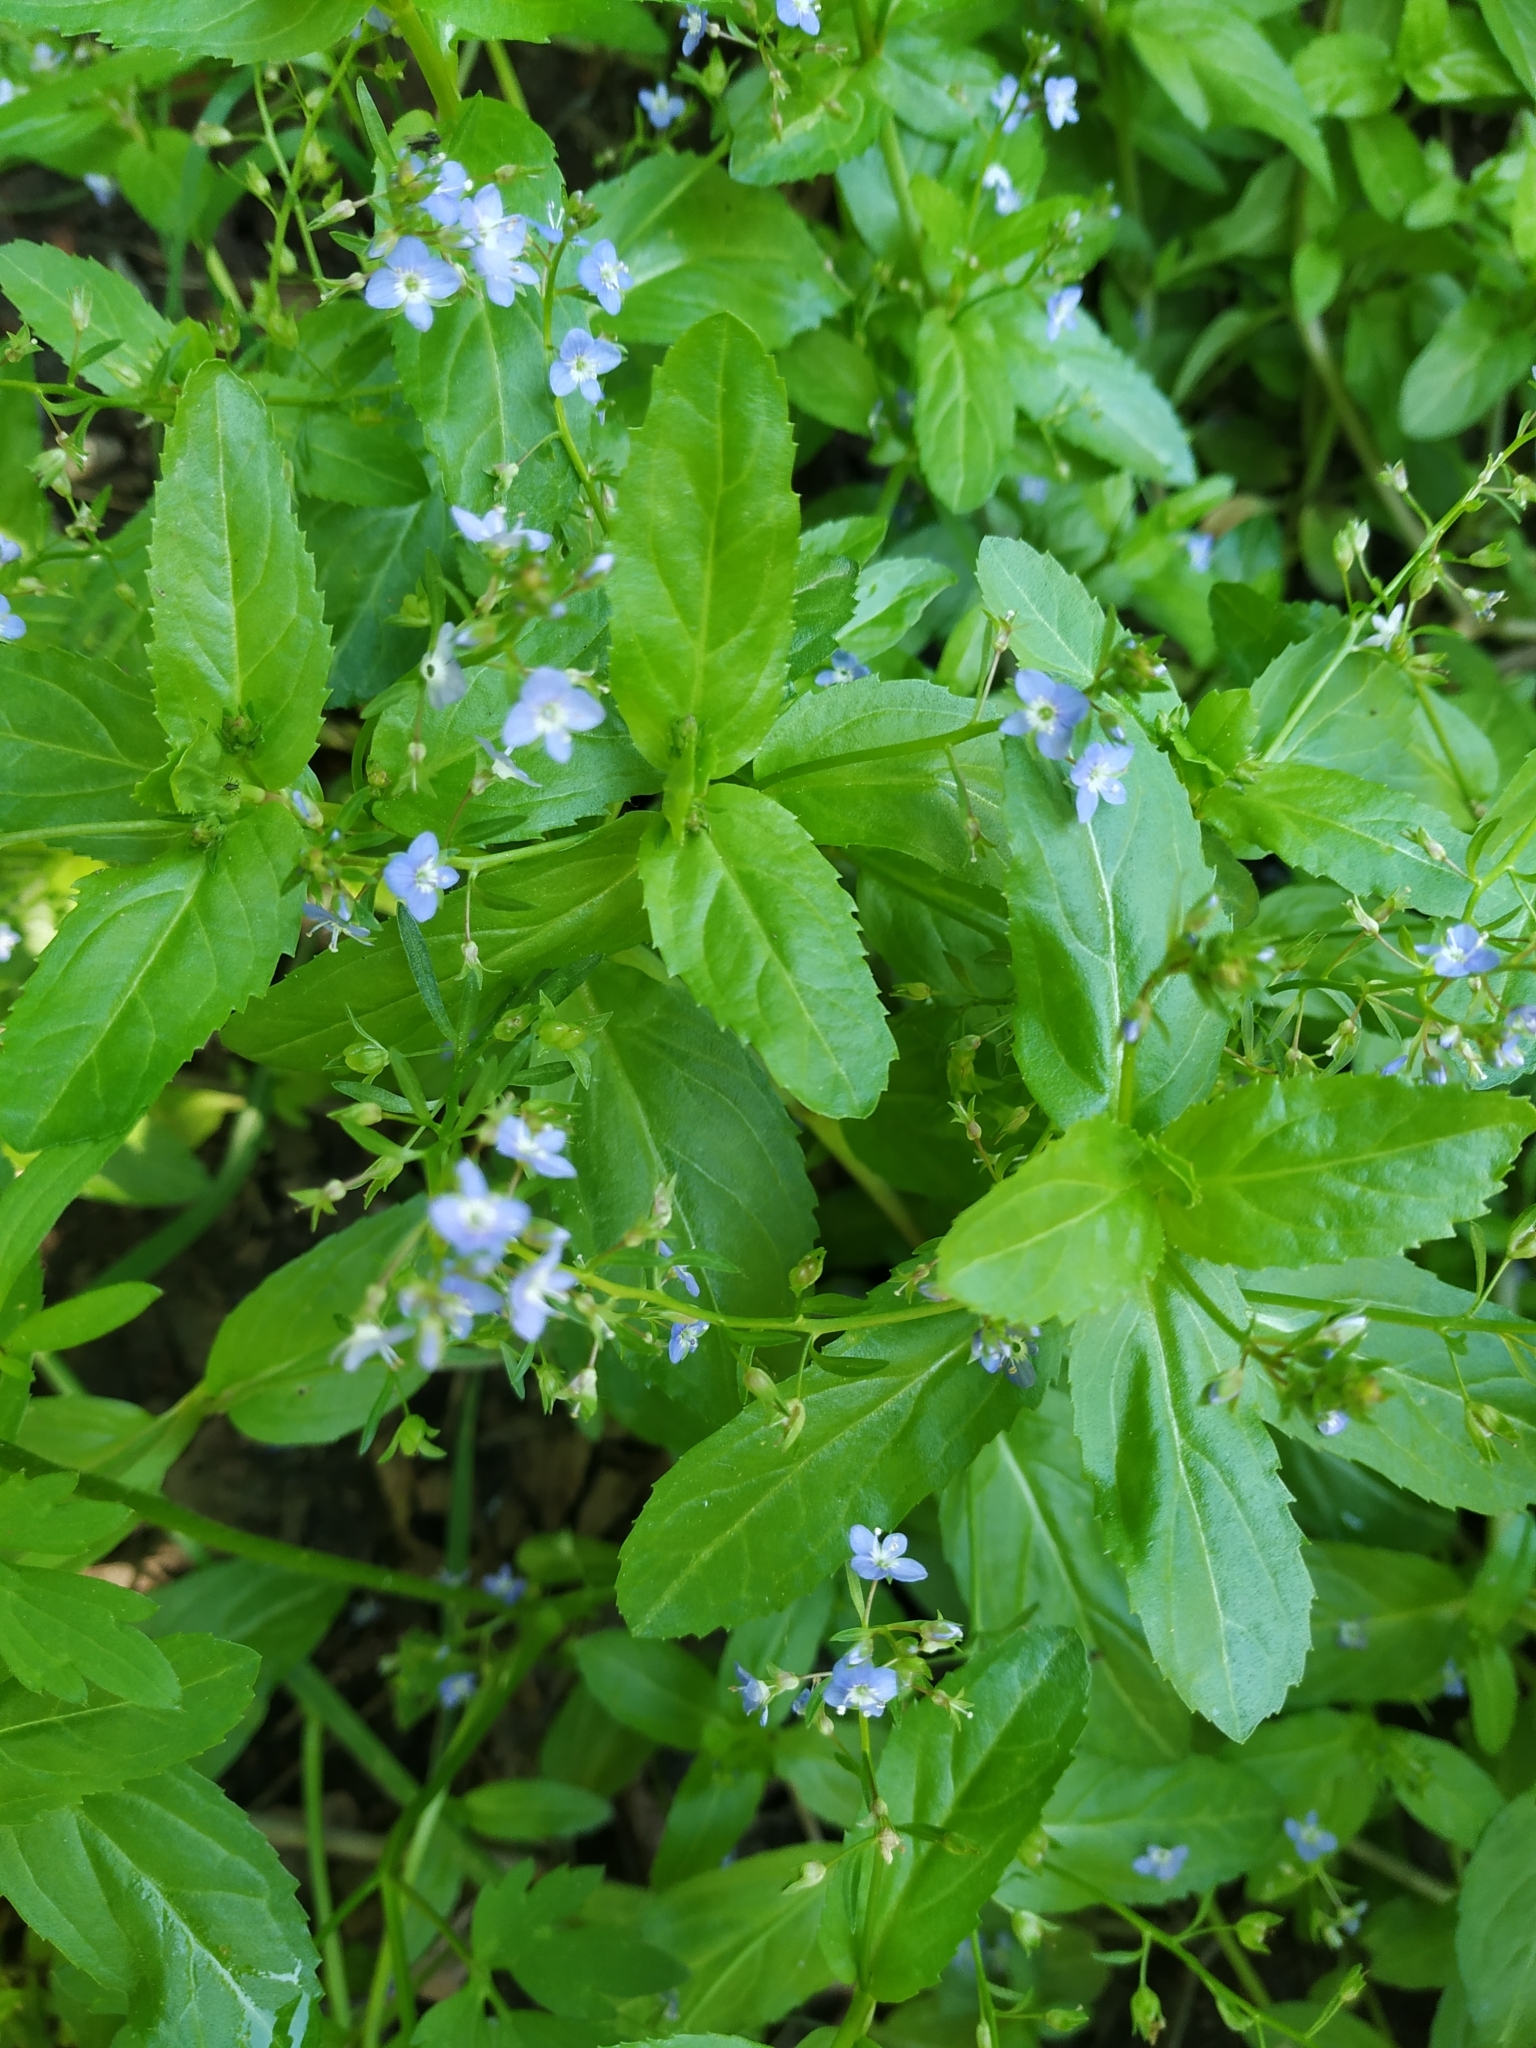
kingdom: Plantae
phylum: Tracheophyta
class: Magnoliopsida
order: Lamiales
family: Plantaginaceae
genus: Veronica
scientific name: Veronica beccabunga
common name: Brooklime
